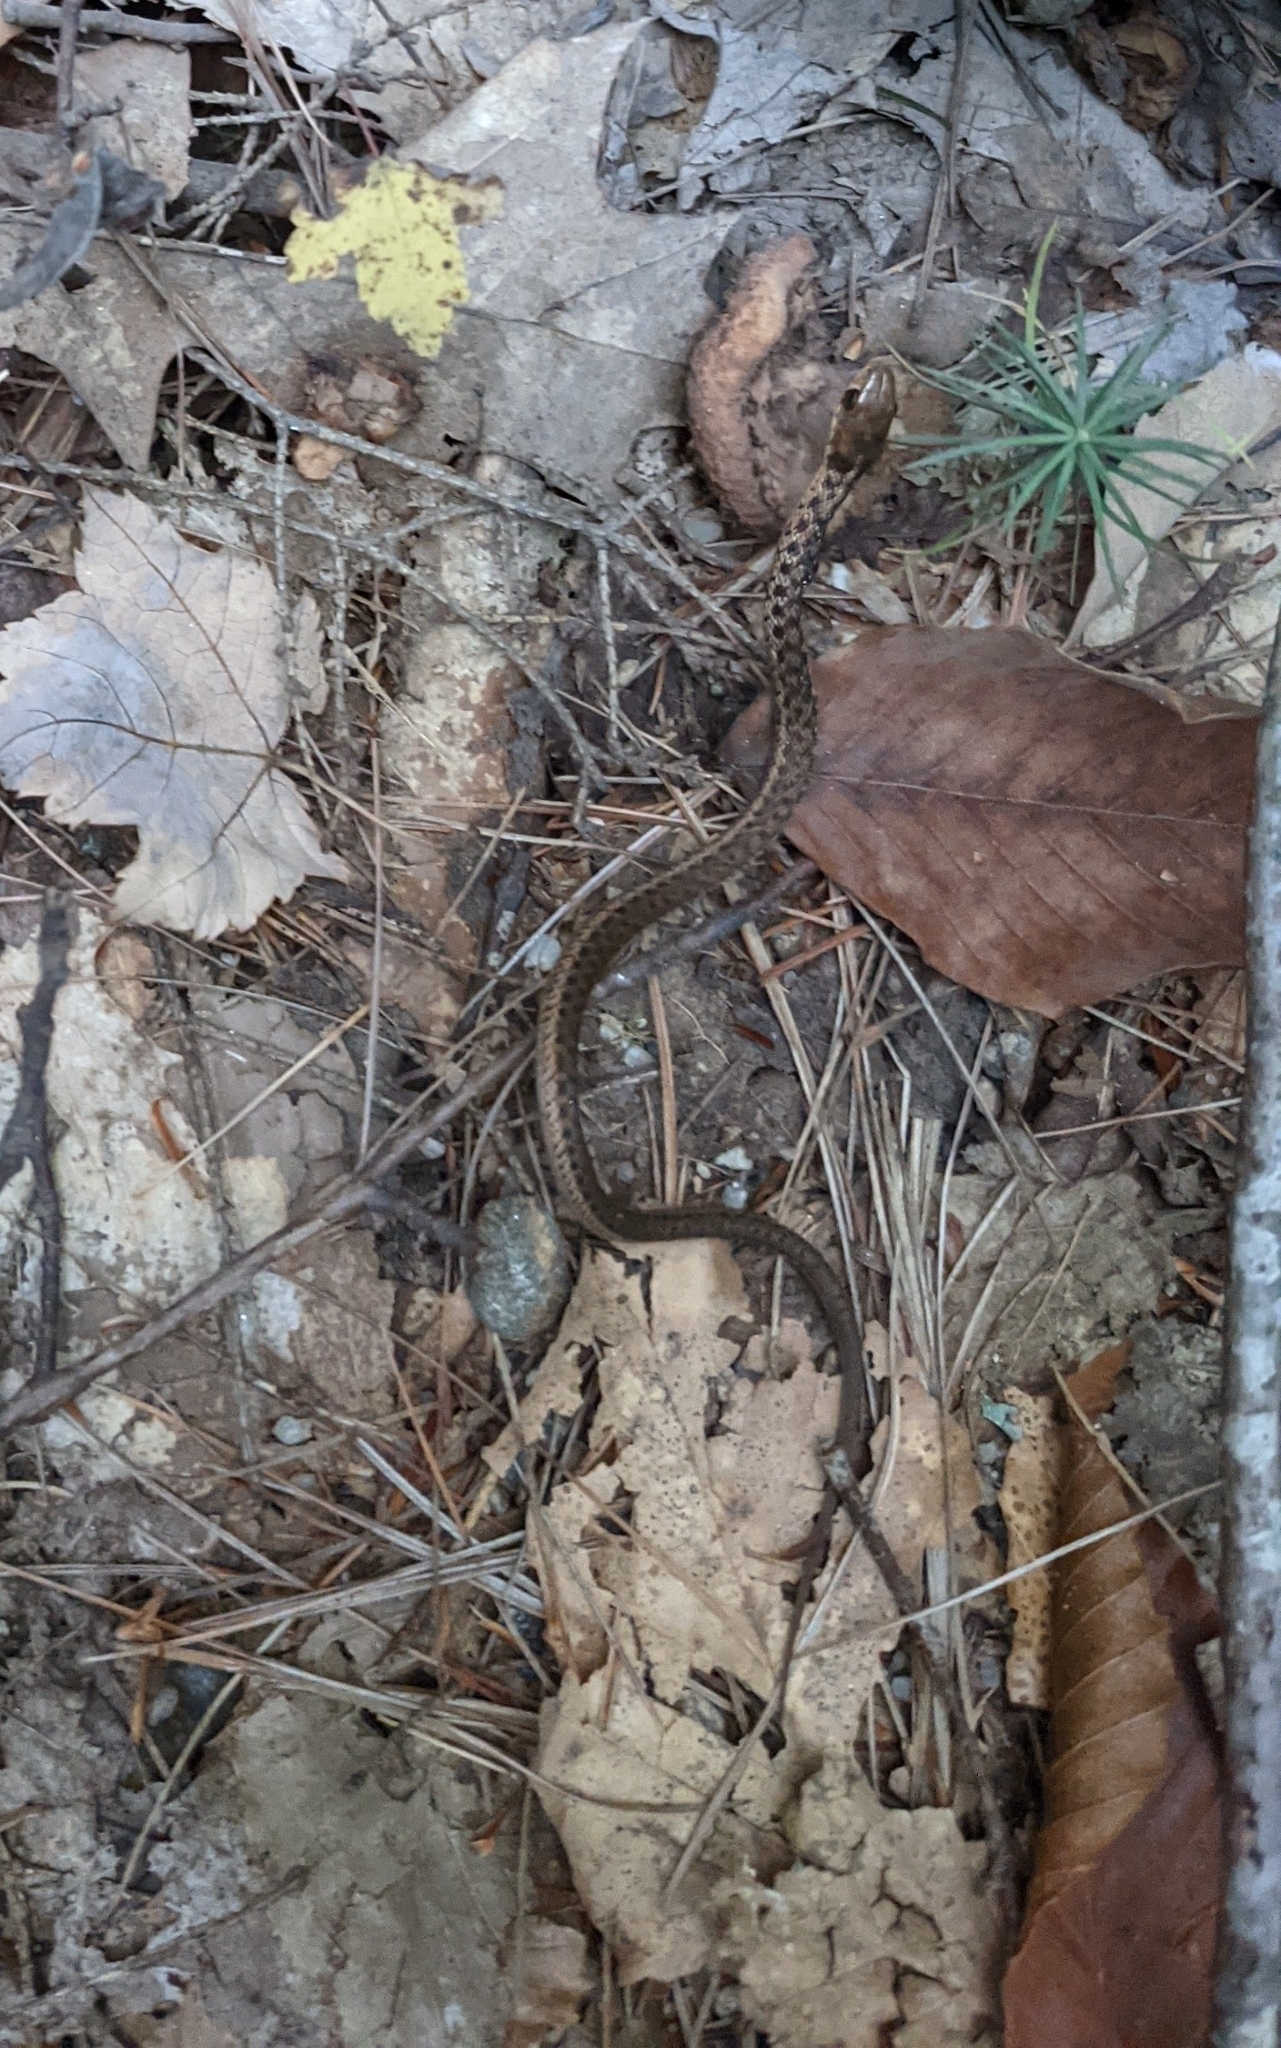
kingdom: Animalia
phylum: Chordata
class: Squamata
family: Colubridae
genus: Thamnophis
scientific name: Thamnophis sirtalis
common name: Common garter snake
